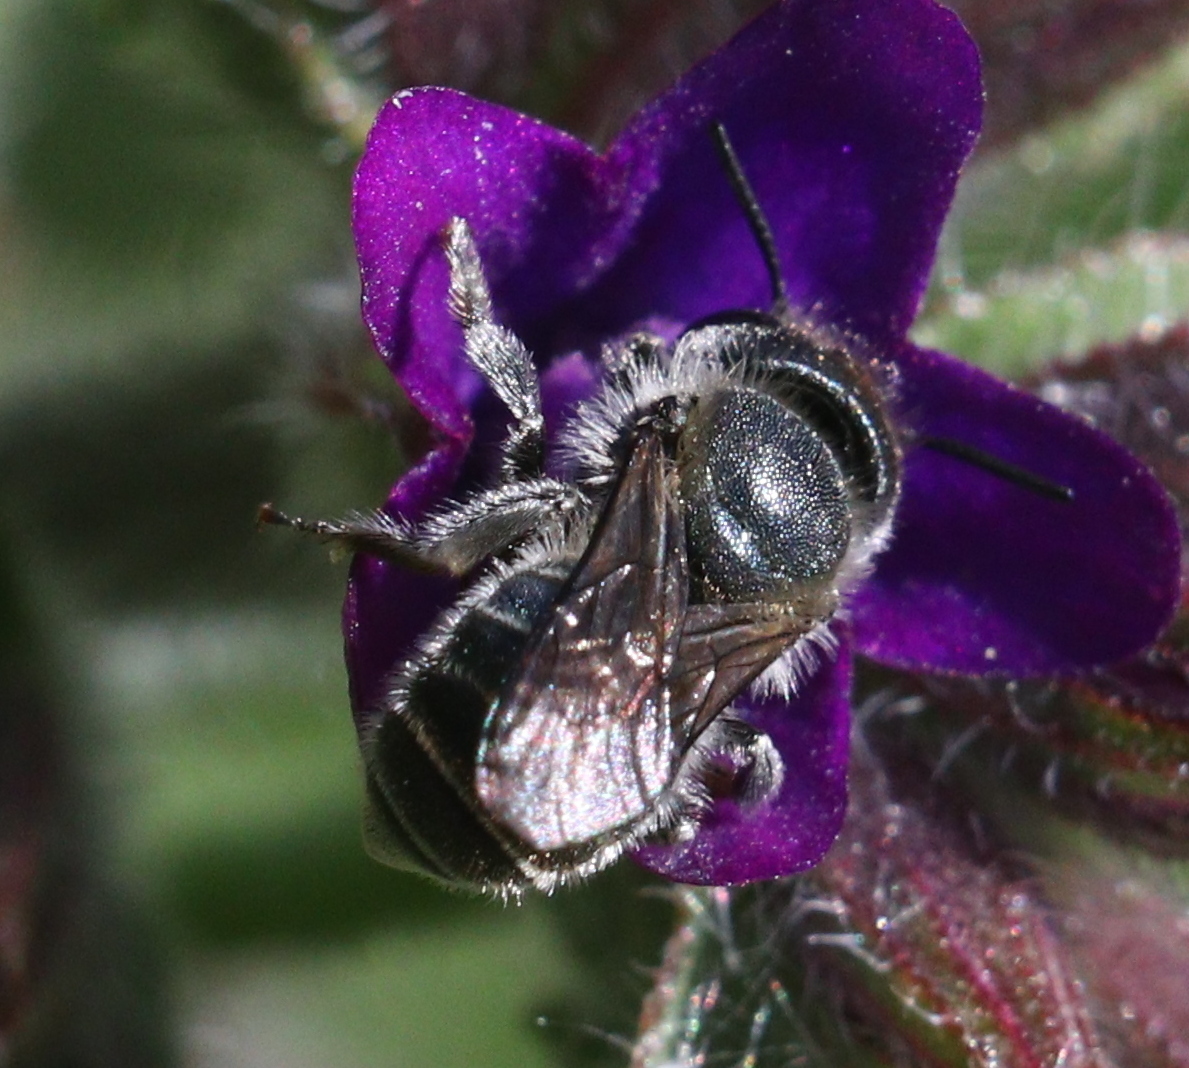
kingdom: Animalia
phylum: Arthropoda
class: Insecta
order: Hymenoptera
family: Megachilidae
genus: Osmia
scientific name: Osmia caerulescens
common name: Blue mason bee
